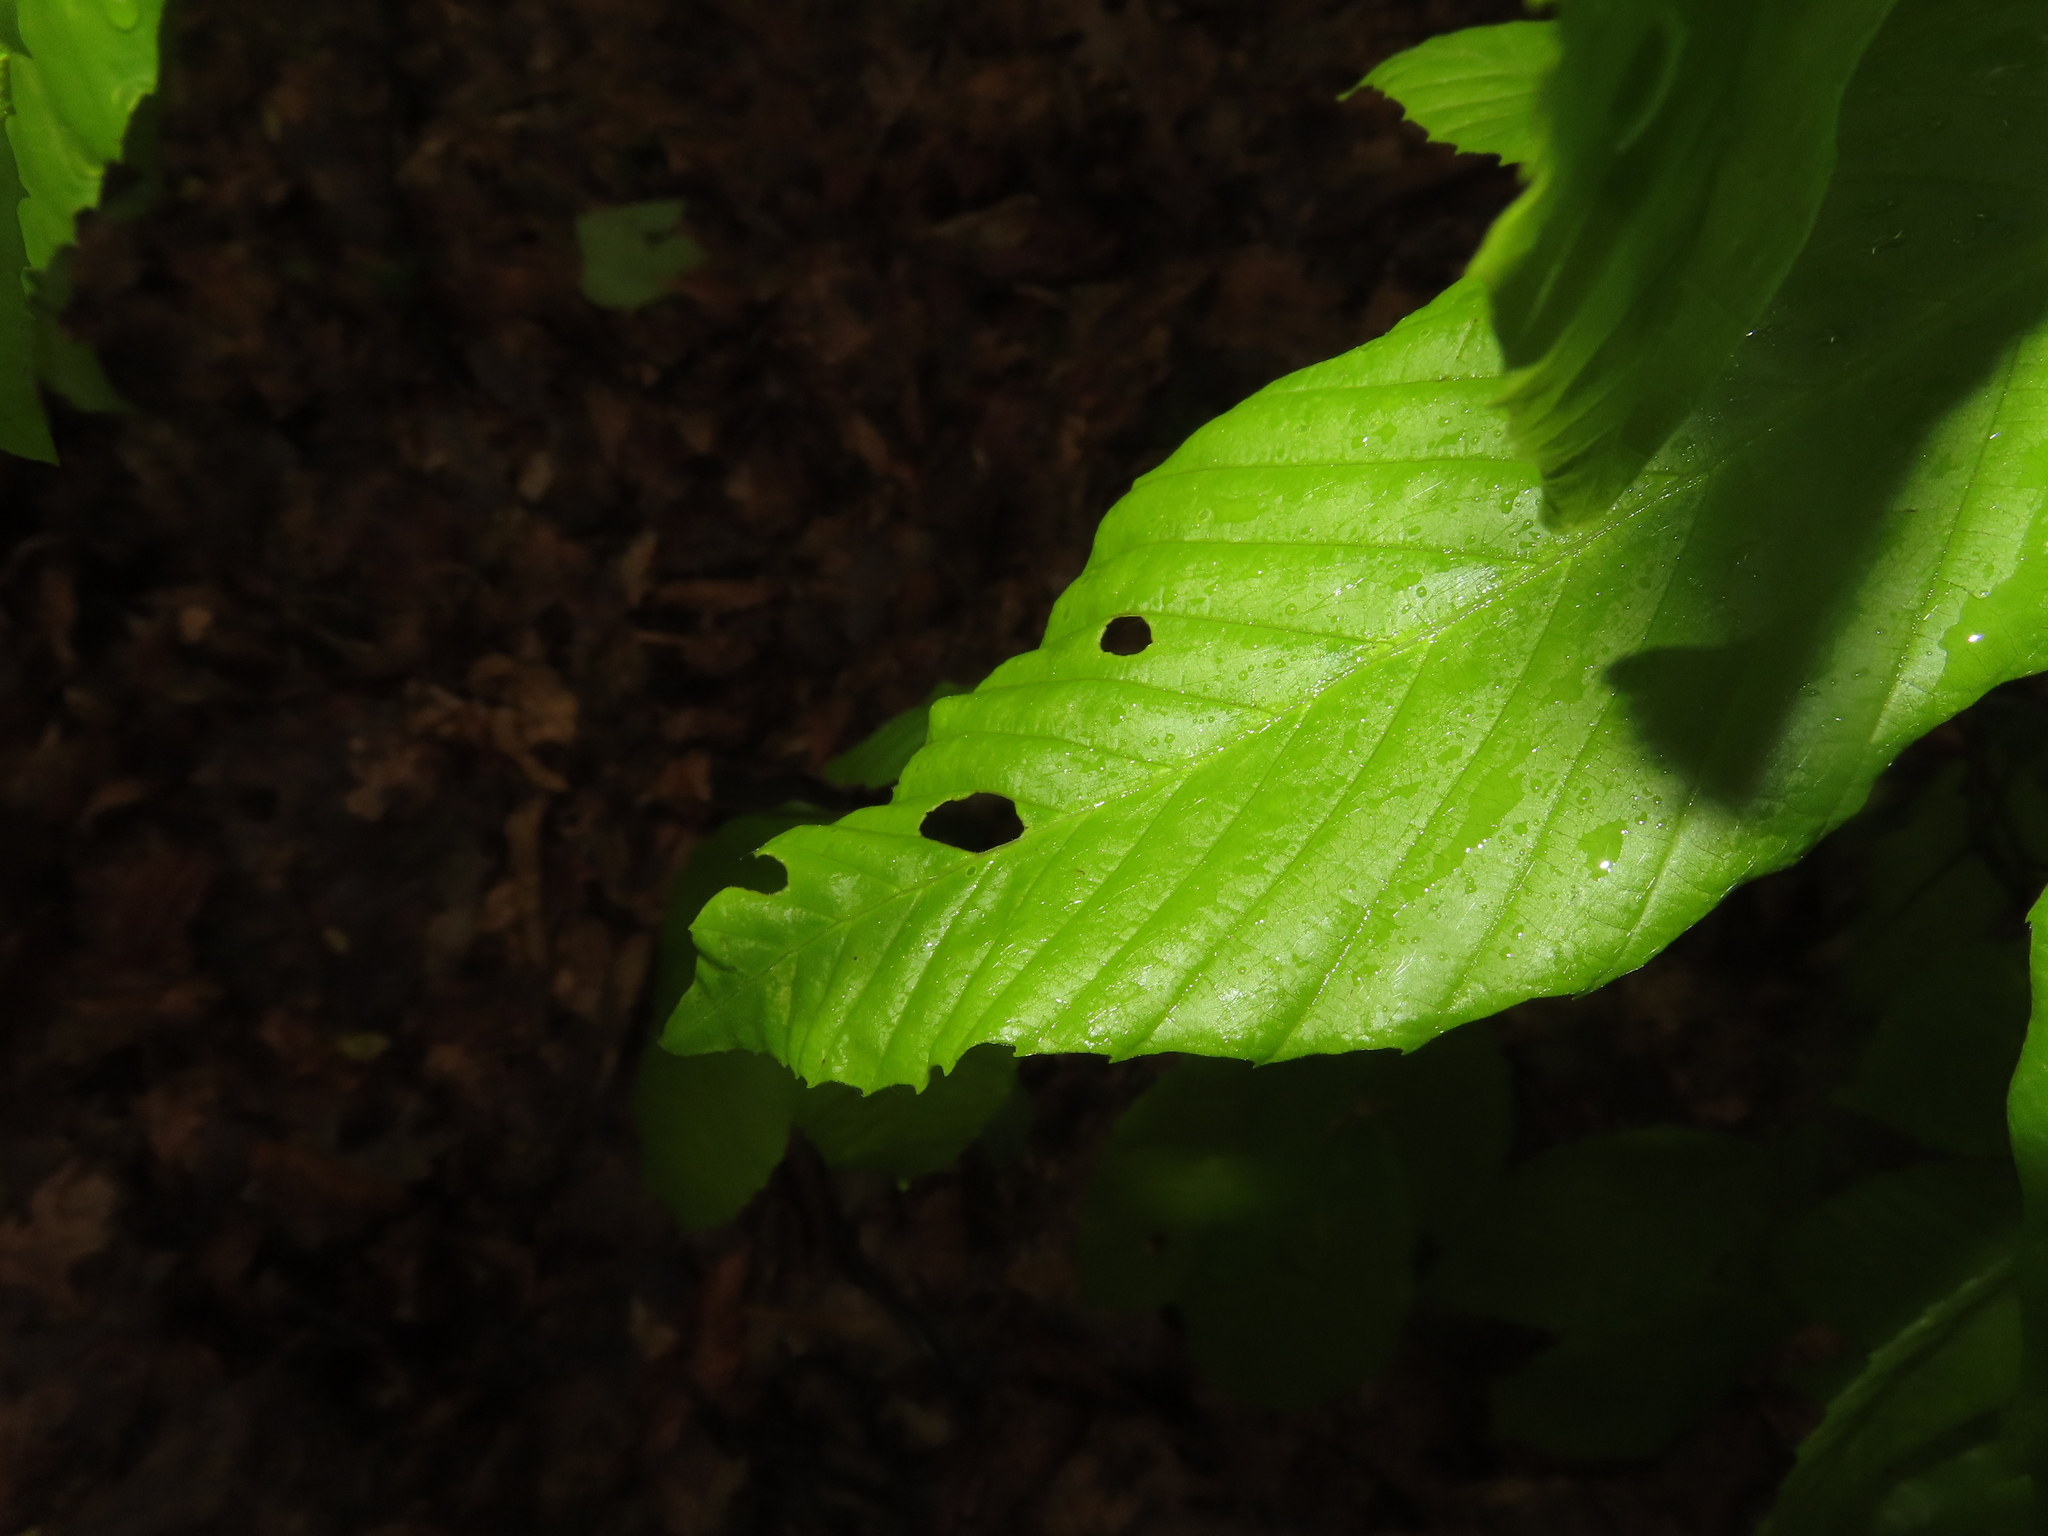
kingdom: Plantae
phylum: Tracheophyta
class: Magnoliopsida
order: Fagales
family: Fagaceae
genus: Fagus
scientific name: Fagus grandifolia
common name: American beech
